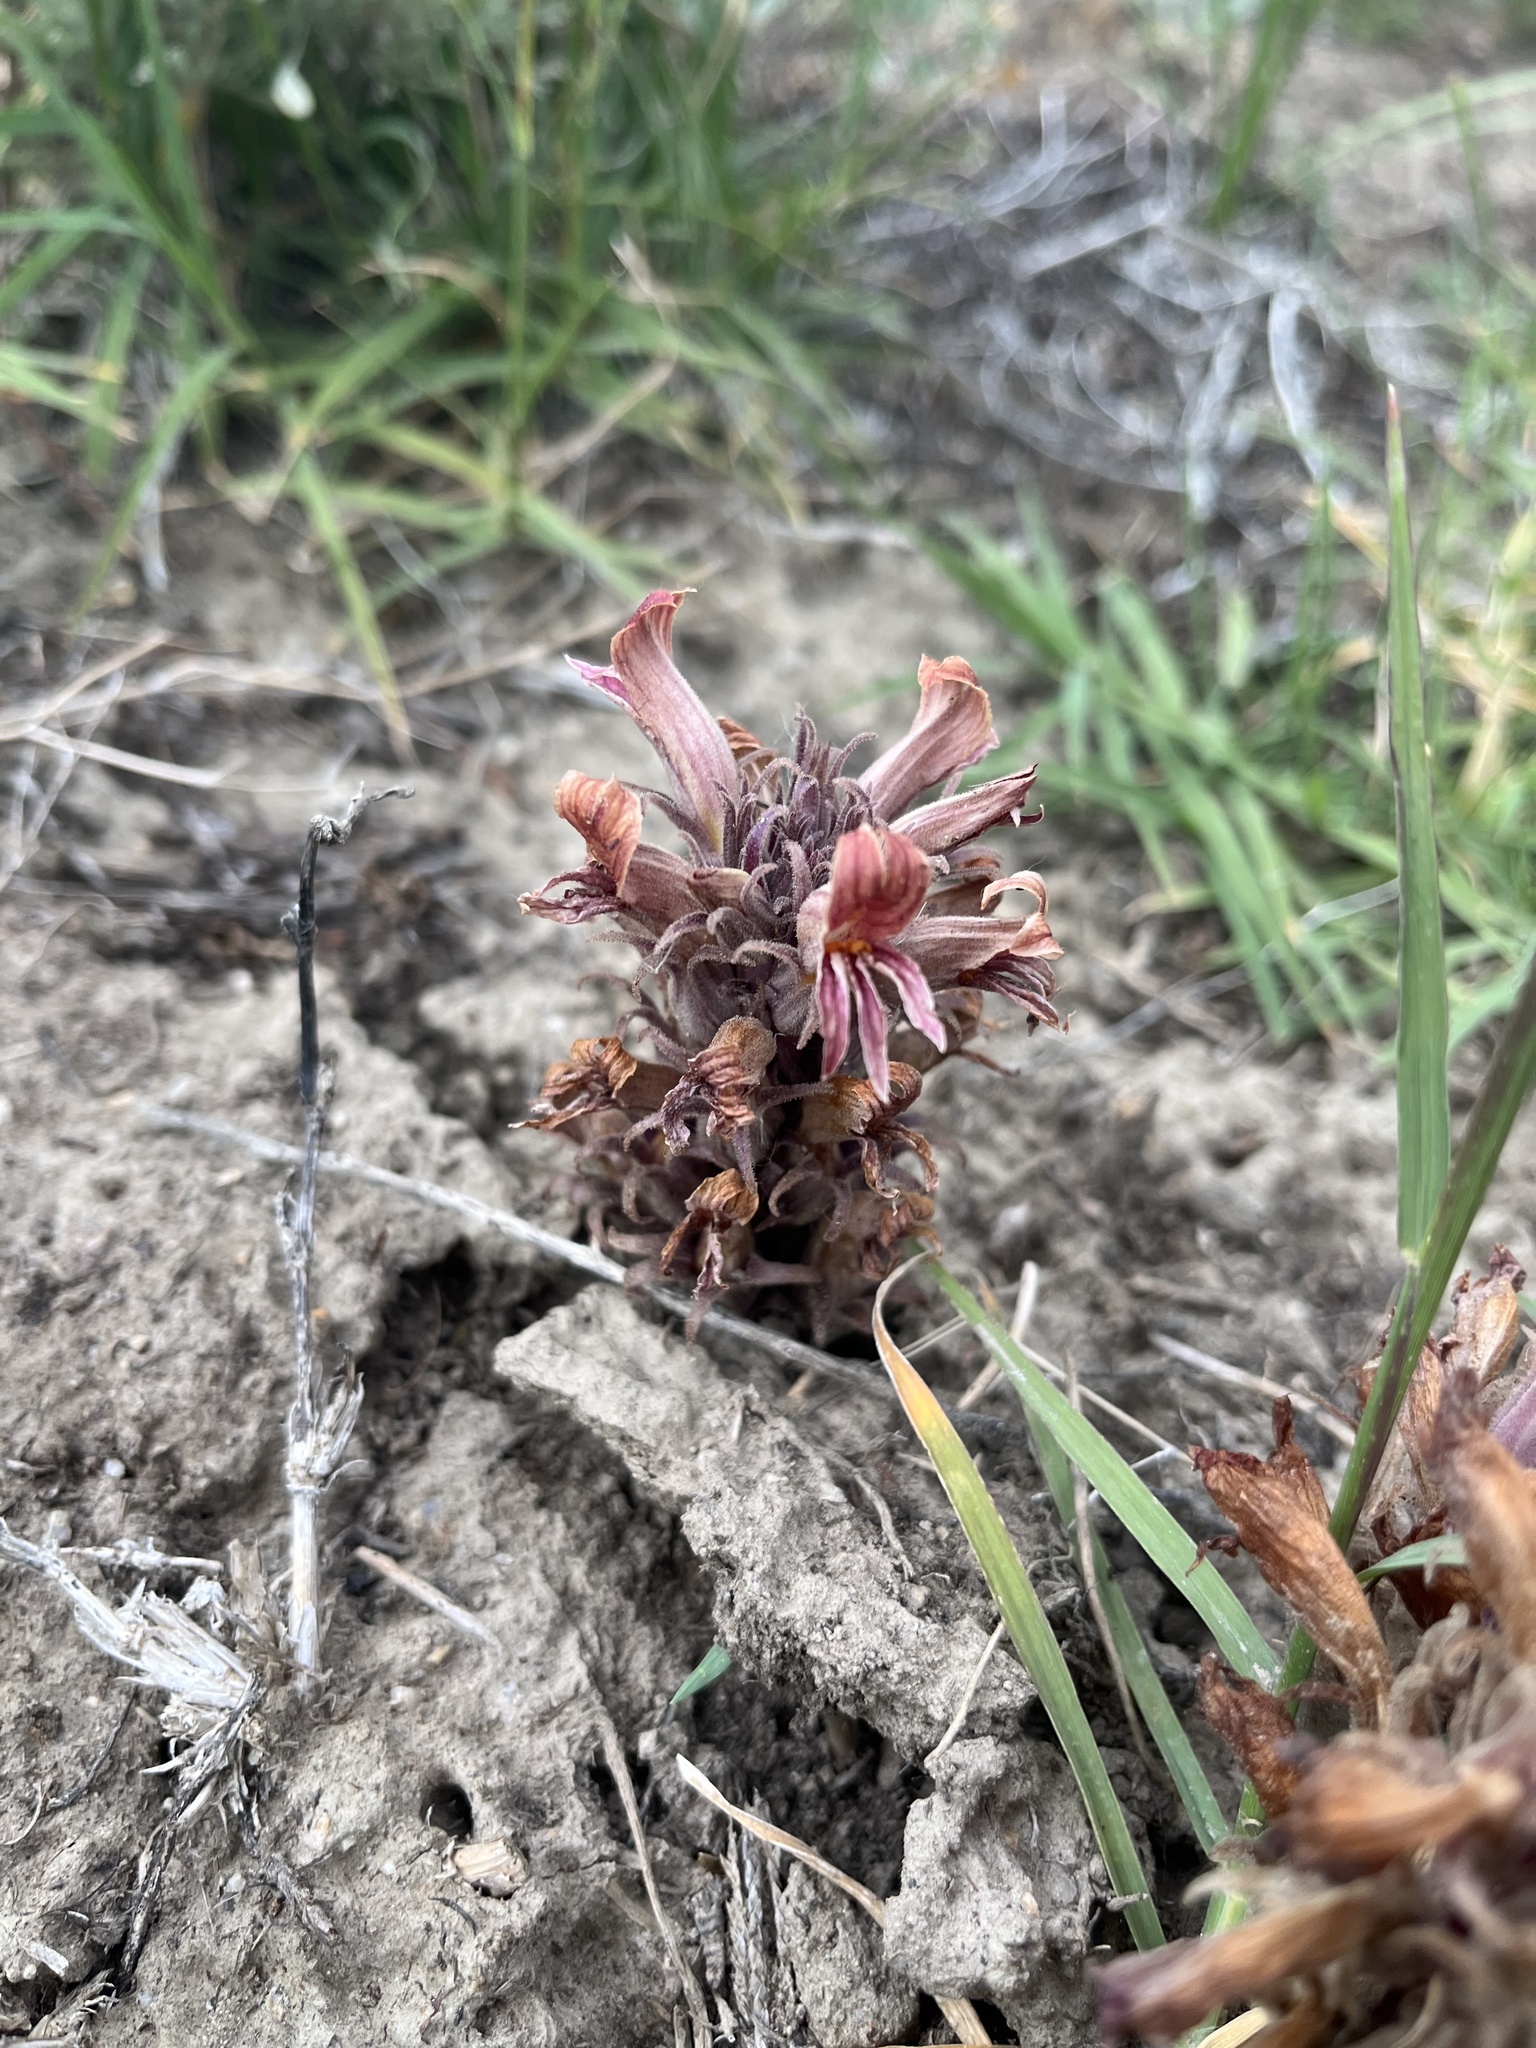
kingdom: Plantae
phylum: Tracheophyta
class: Magnoliopsida
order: Lamiales
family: Orobanchaceae
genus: Aphyllon
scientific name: Aphyllon corymbosum
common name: Flat-top broomrape
